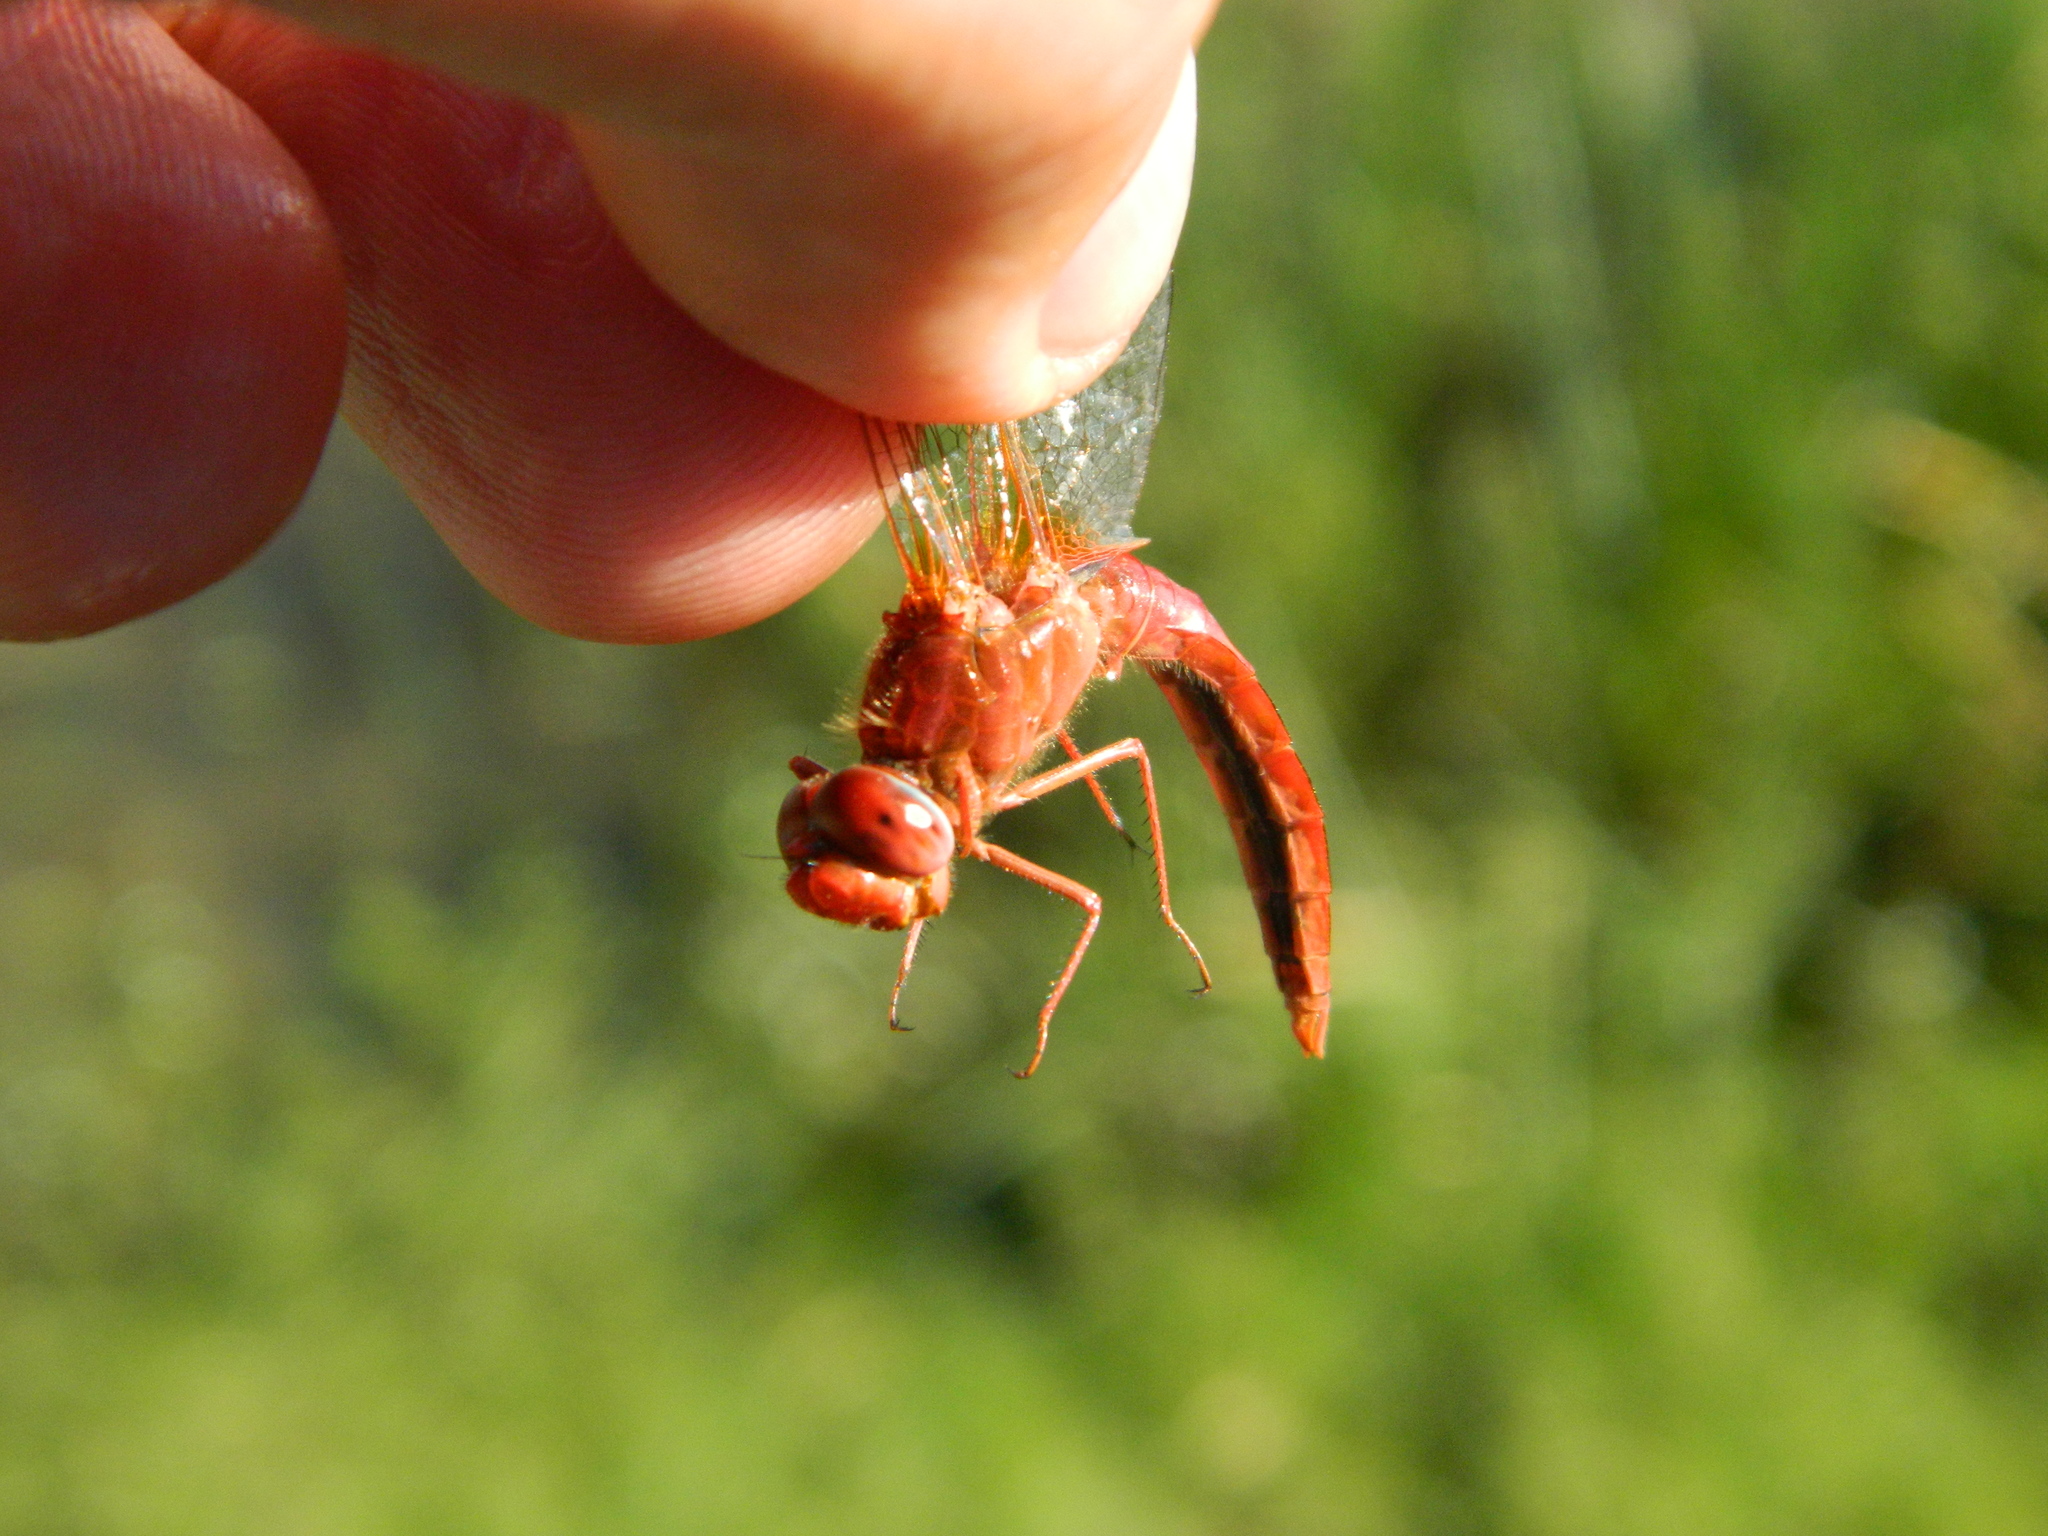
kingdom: Animalia
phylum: Arthropoda
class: Insecta
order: Odonata
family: Libellulidae
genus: Crocothemis
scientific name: Crocothemis erythraea
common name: Scarlet dragonfly
